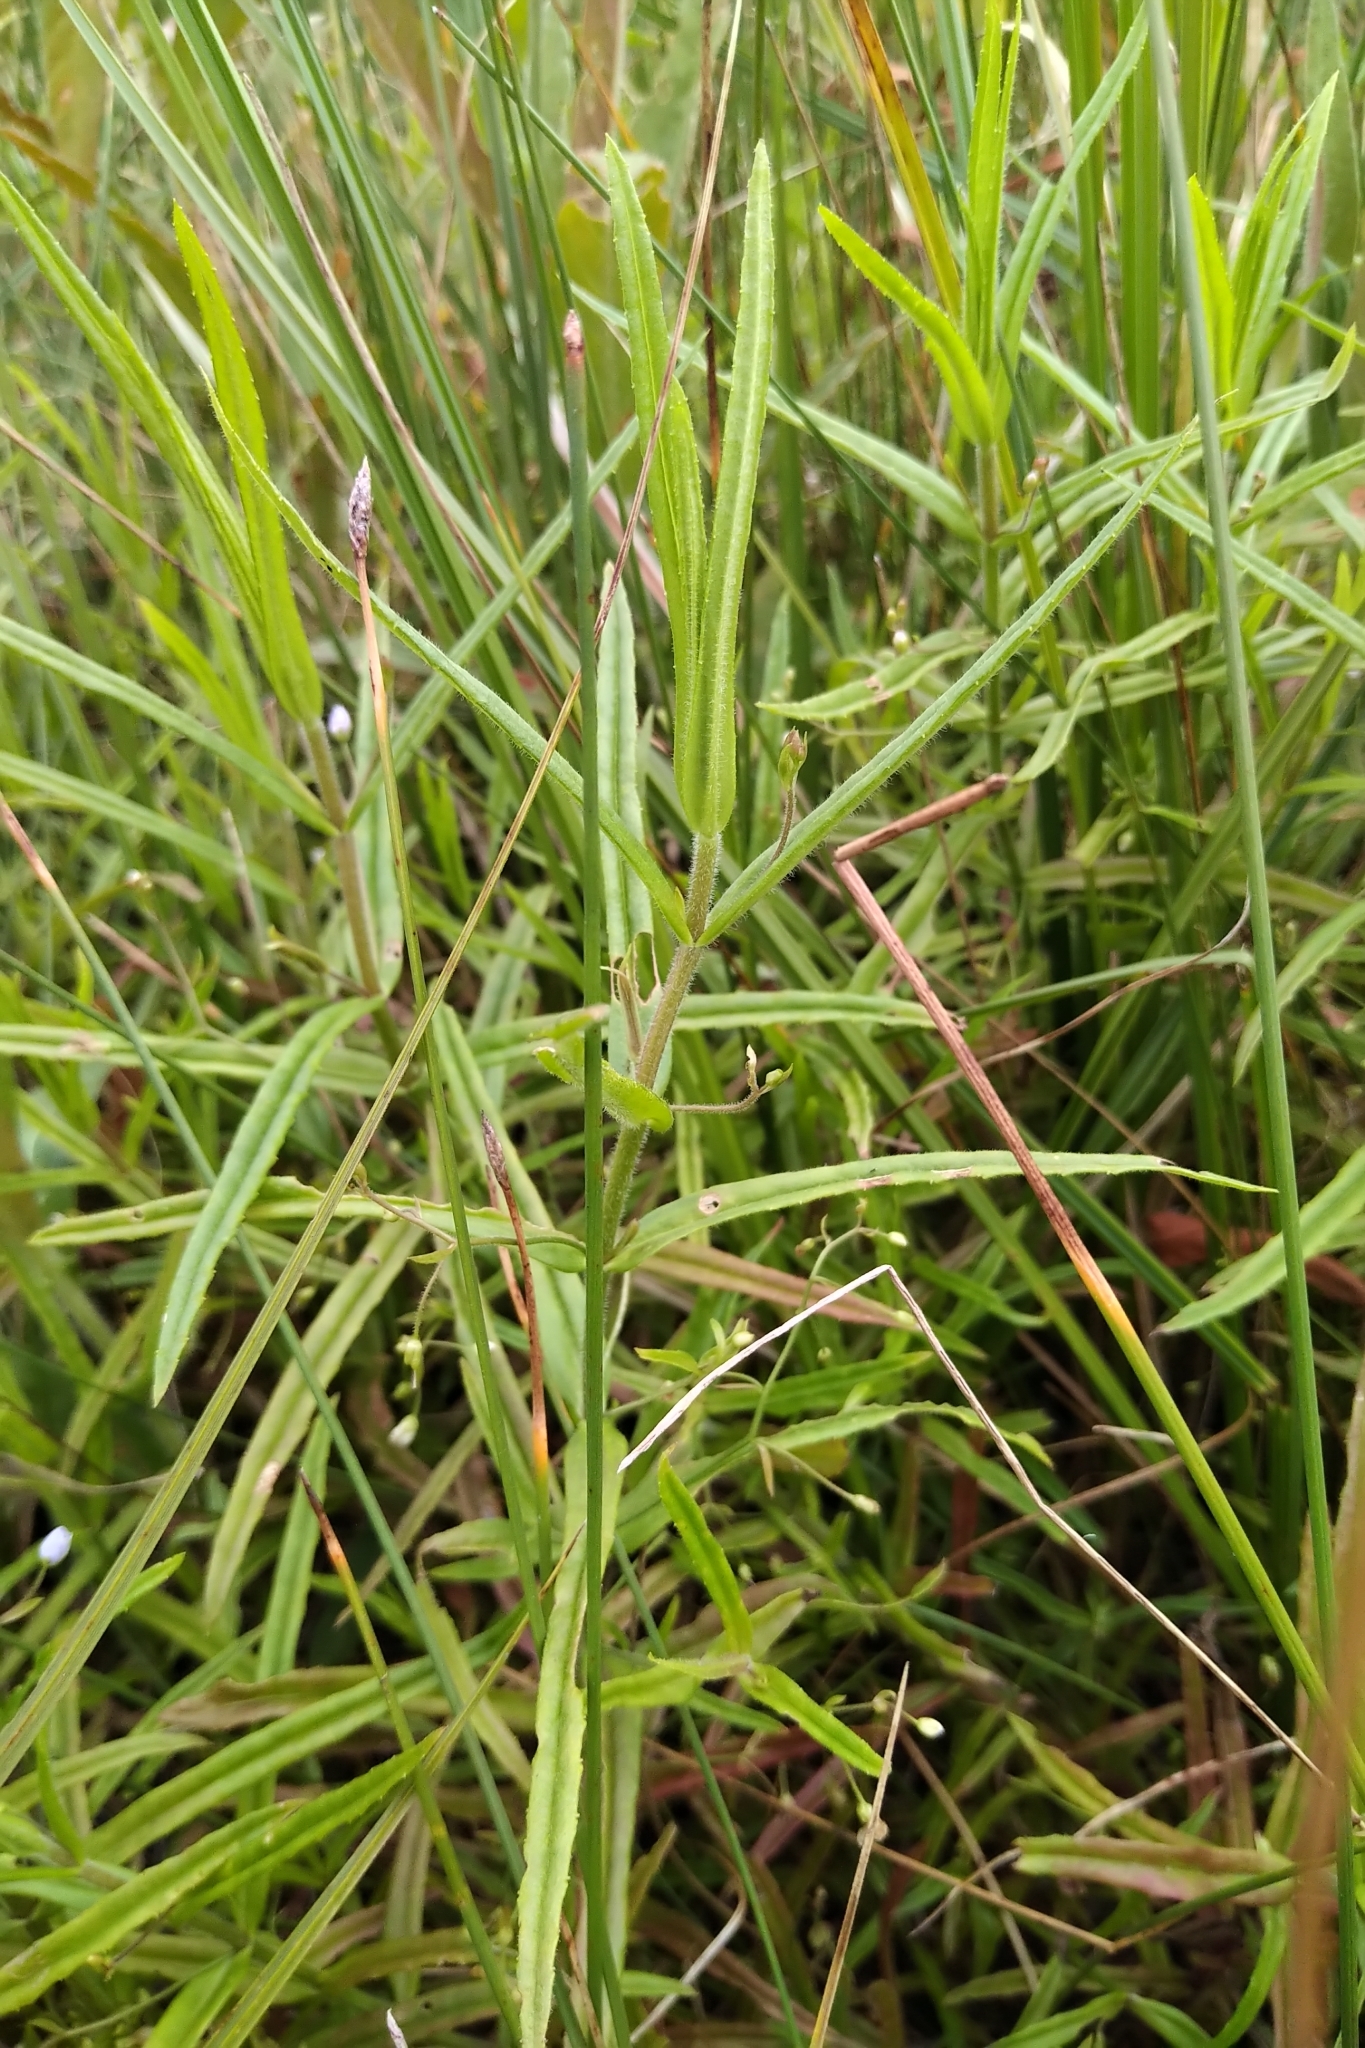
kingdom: Plantae
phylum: Tracheophyta
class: Magnoliopsida
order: Lamiales
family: Plantaginaceae
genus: Veronica
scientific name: Veronica scutellata
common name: Marsh speedwell
